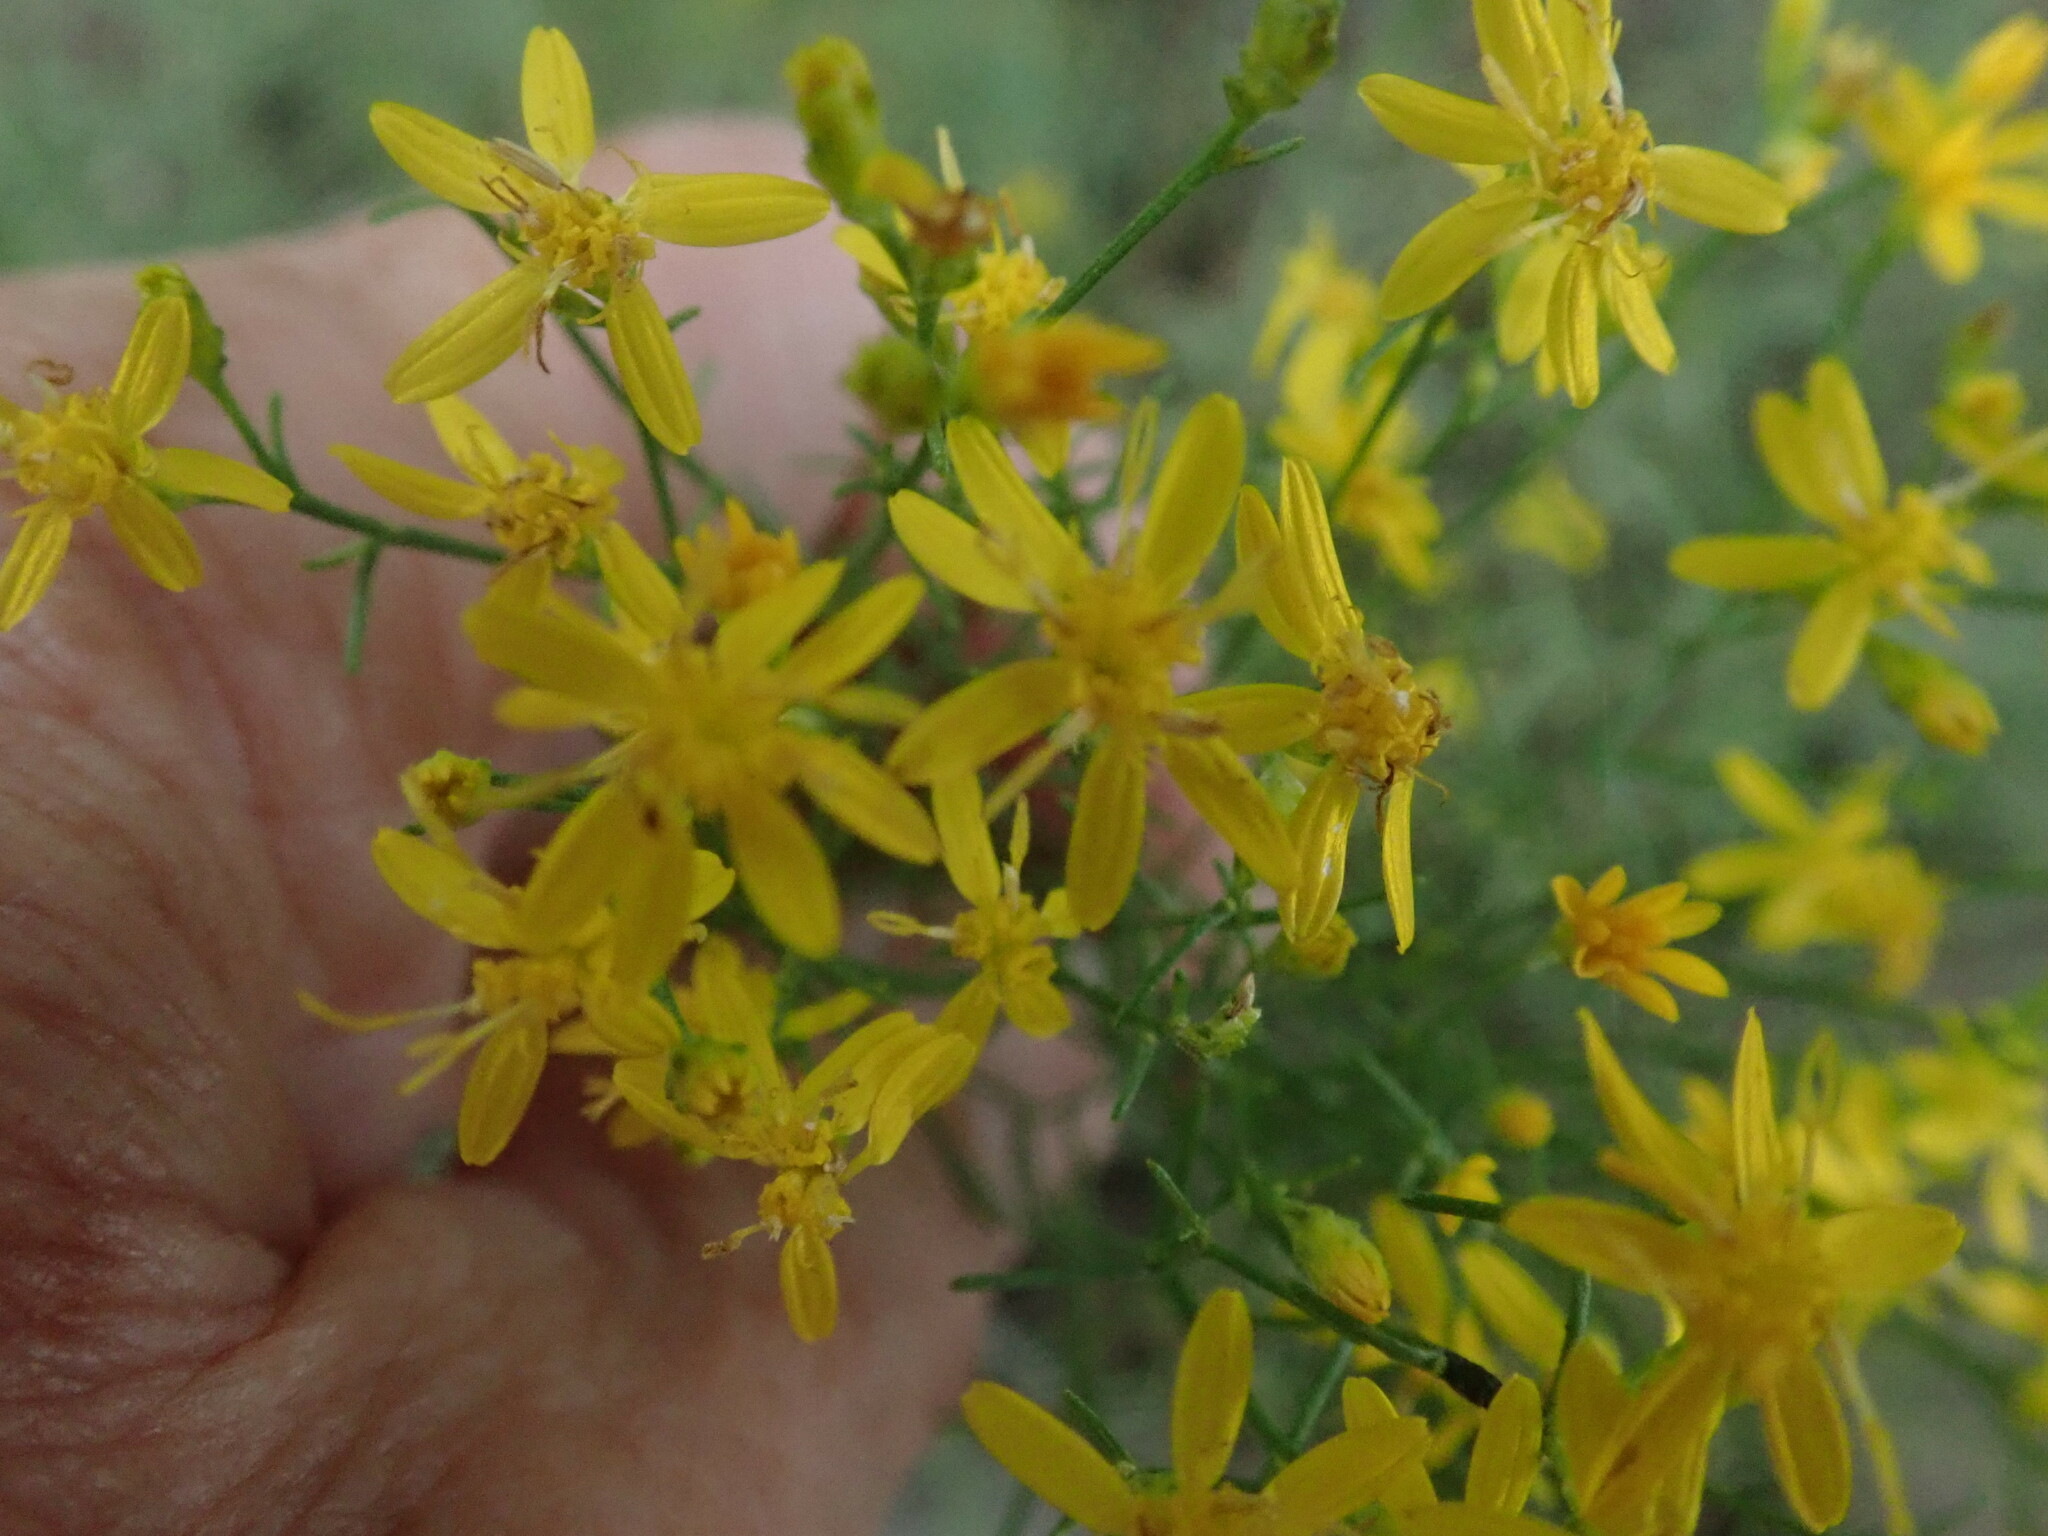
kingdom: Plantae
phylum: Tracheophyta
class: Magnoliopsida
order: Asterales
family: Asteraceae
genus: Gutierrezia
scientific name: Gutierrezia sarothrae
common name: Broom snakeweed
